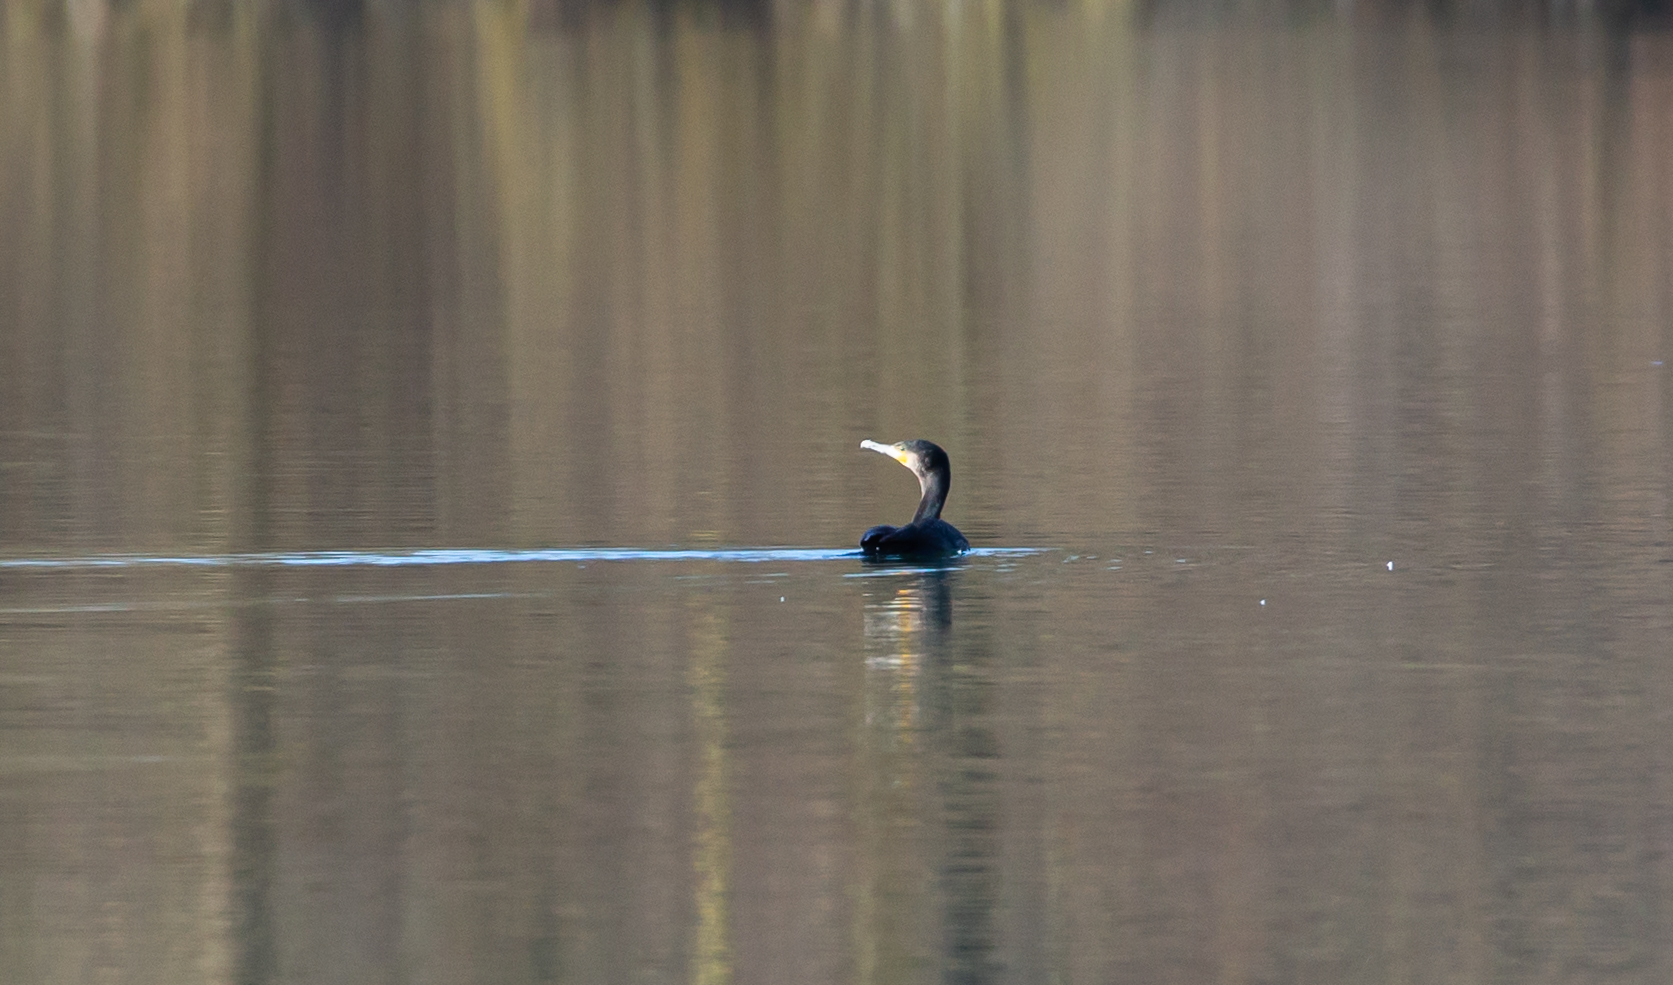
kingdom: Animalia
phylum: Chordata
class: Aves
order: Suliformes
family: Phalacrocoracidae
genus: Phalacrocorax
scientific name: Phalacrocorax carbo
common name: Great cormorant
